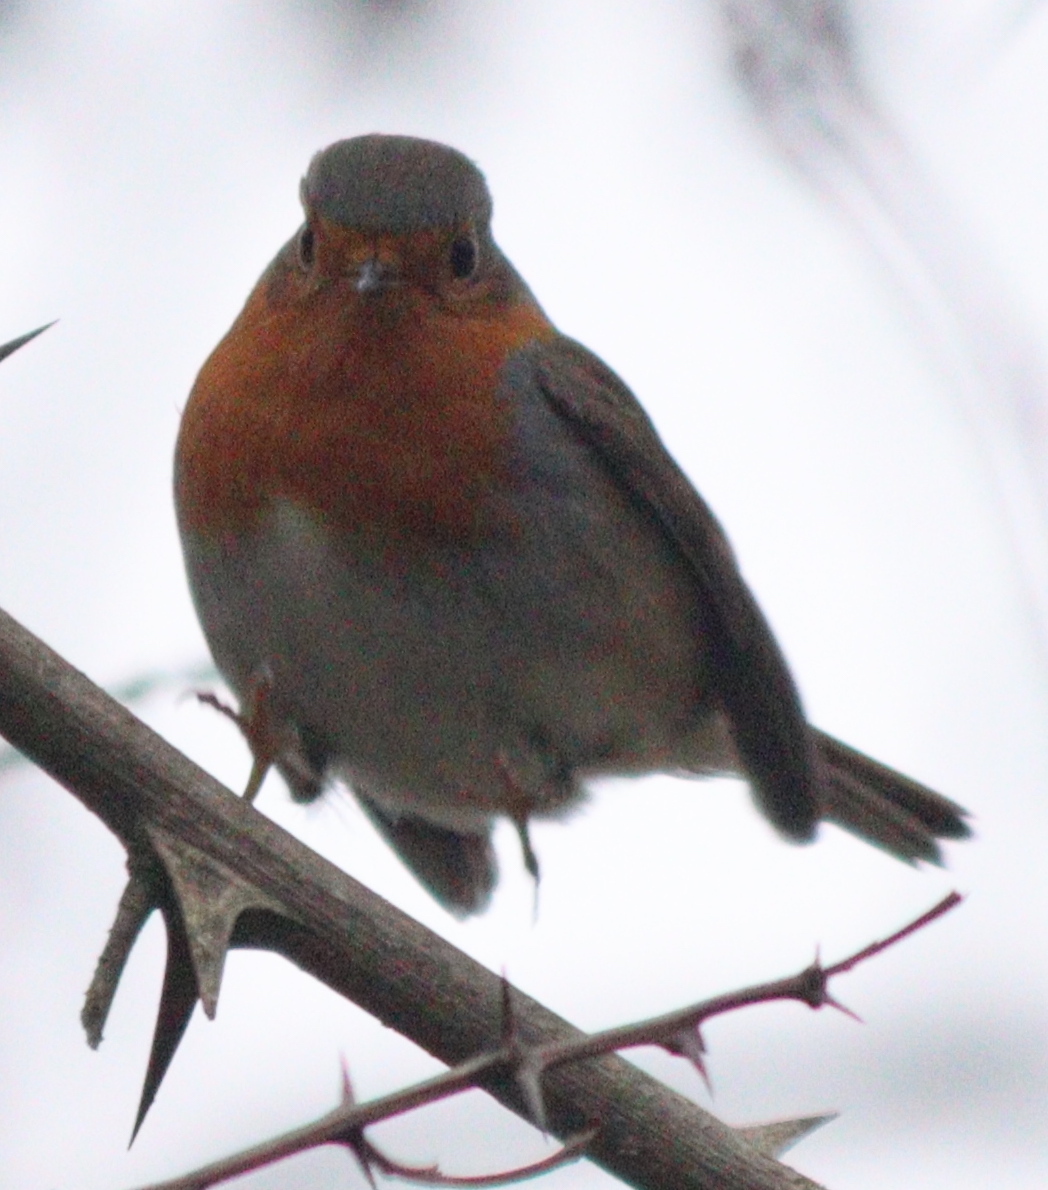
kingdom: Animalia
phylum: Chordata
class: Aves
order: Passeriformes
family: Muscicapidae
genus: Erithacus
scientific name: Erithacus rubecula
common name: European robin
